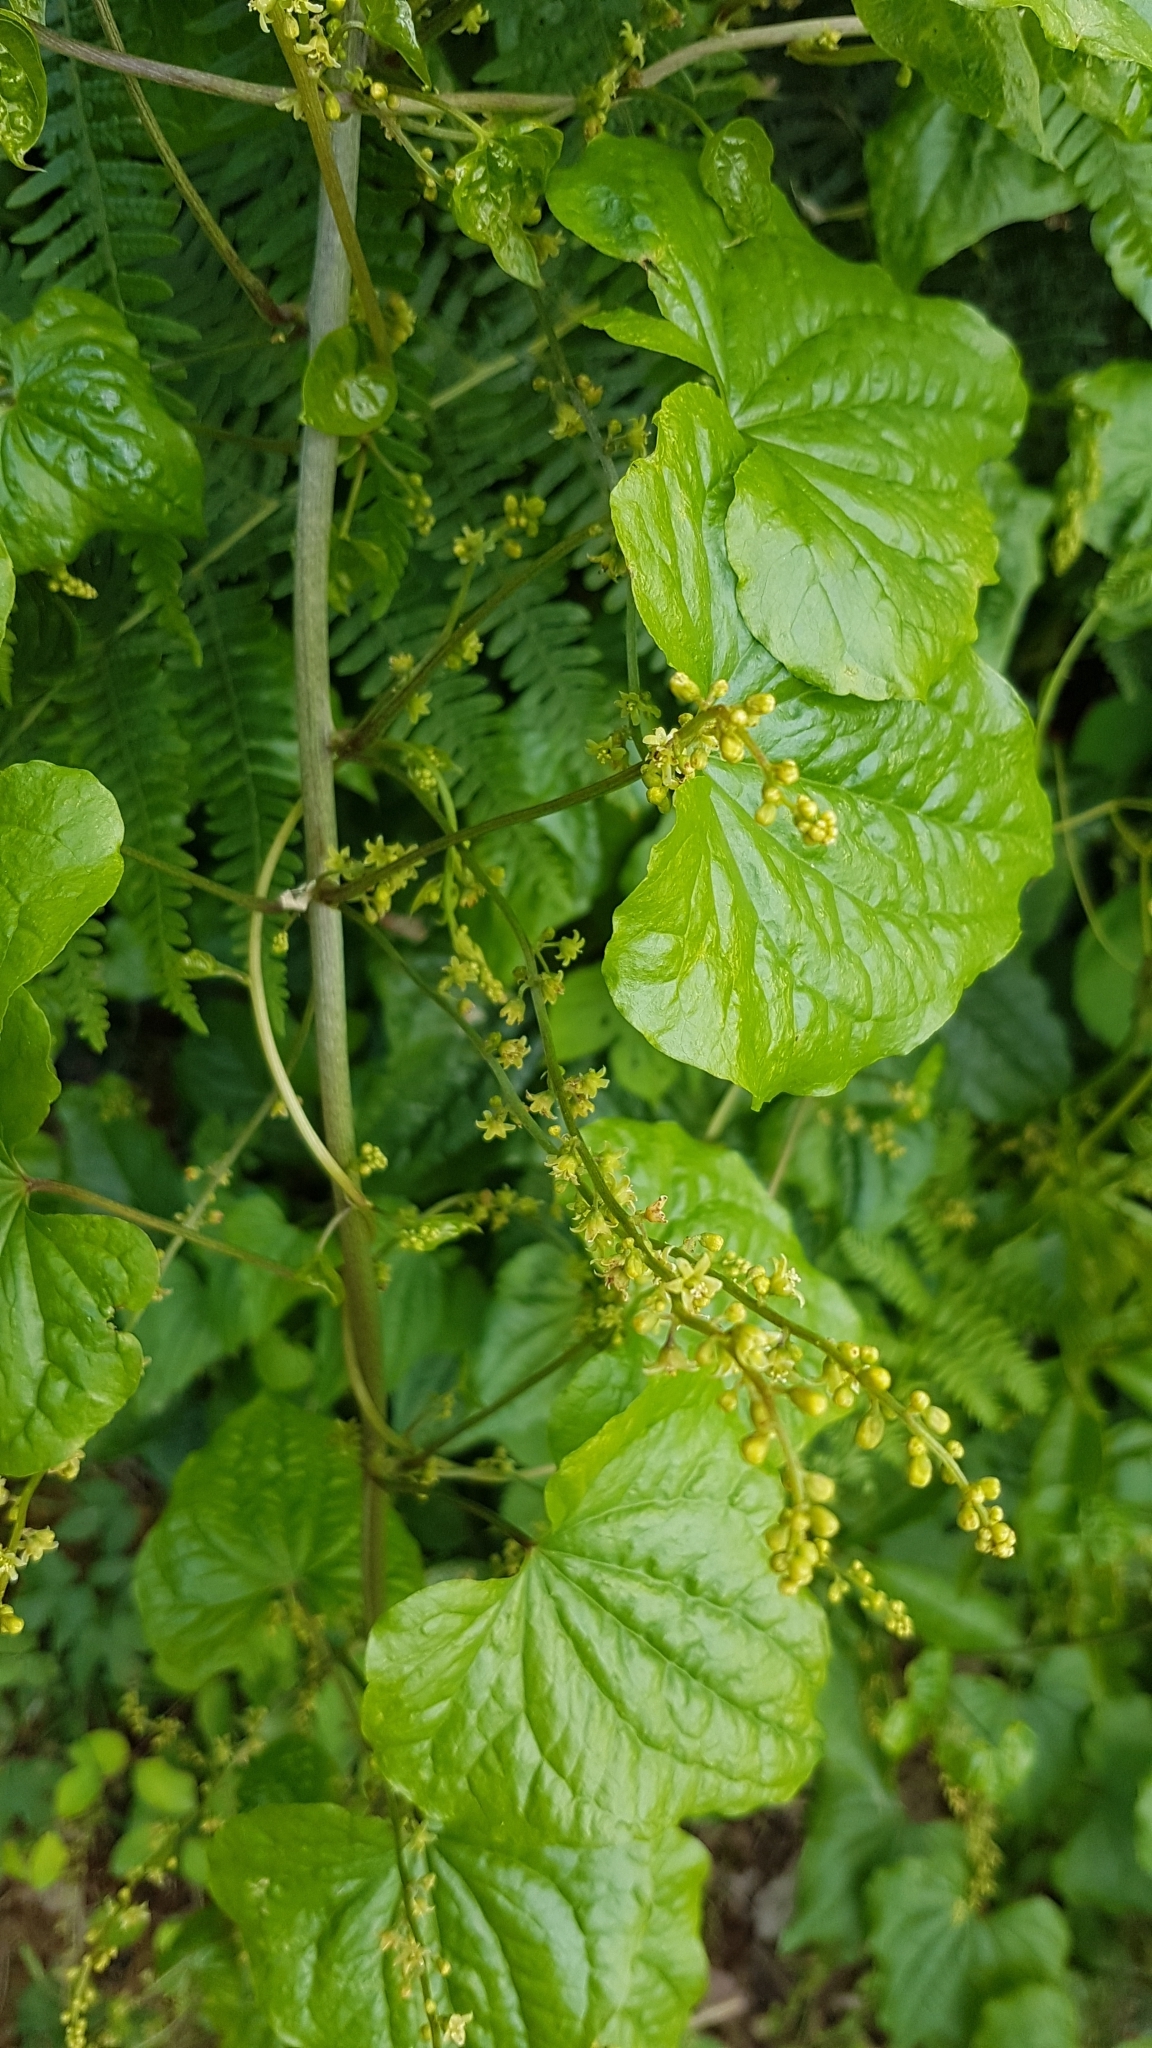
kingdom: Plantae
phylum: Tracheophyta
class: Liliopsida
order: Dioscoreales
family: Dioscoreaceae
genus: Dioscorea
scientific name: Dioscorea communis
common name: Black-bindweed
